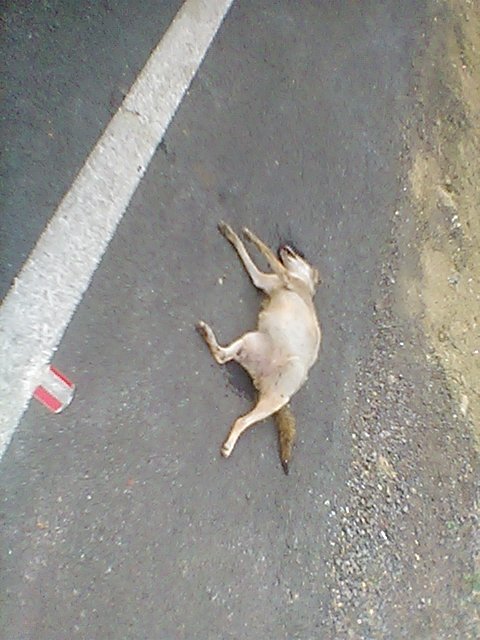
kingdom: Animalia
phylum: Chordata
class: Mammalia
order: Carnivora
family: Canidae
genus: Canis
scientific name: Canis aureus
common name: Golden jackal
